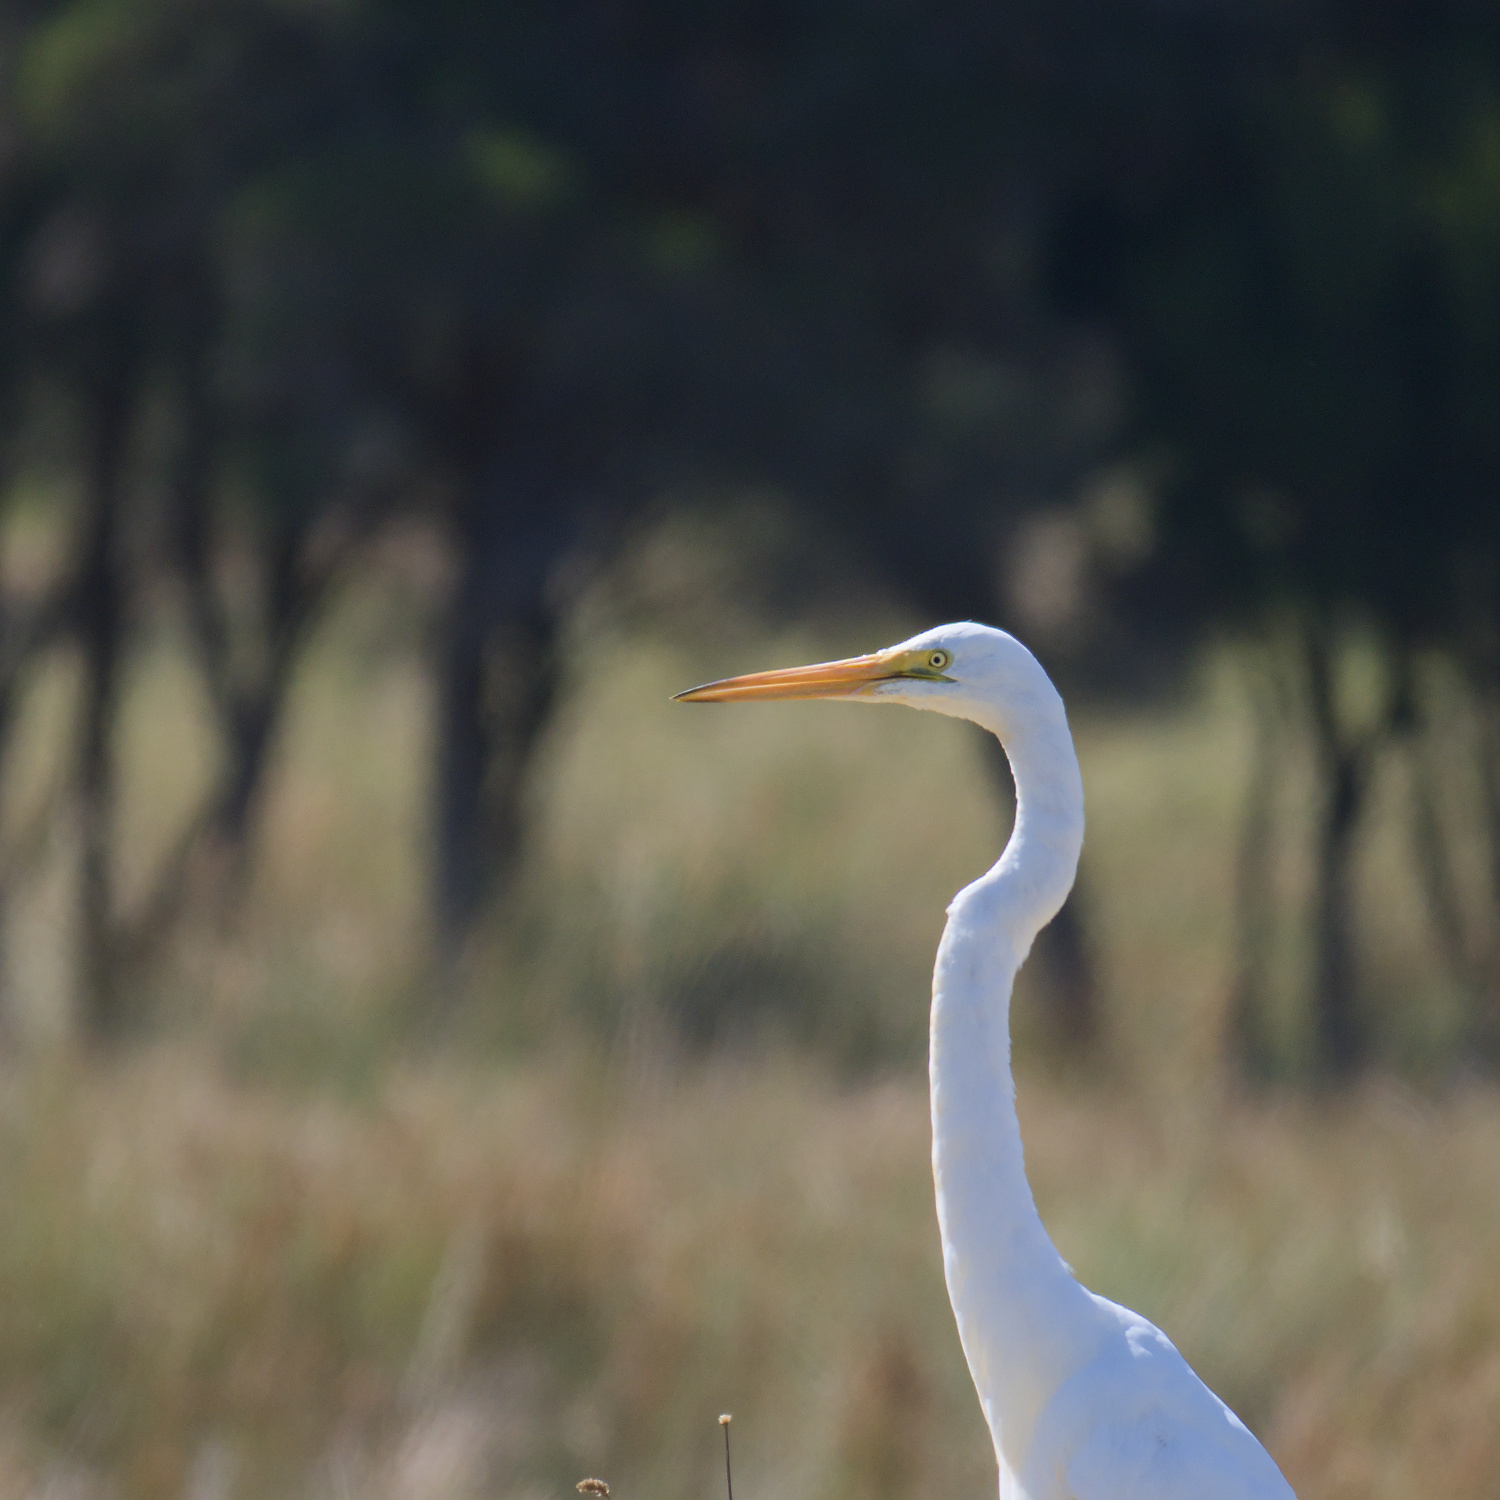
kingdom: Animalia
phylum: Chordata
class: Aves
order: Pelecaniformes
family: Ardeidae
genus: Ardea
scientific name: Ardea alba
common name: Great egret
